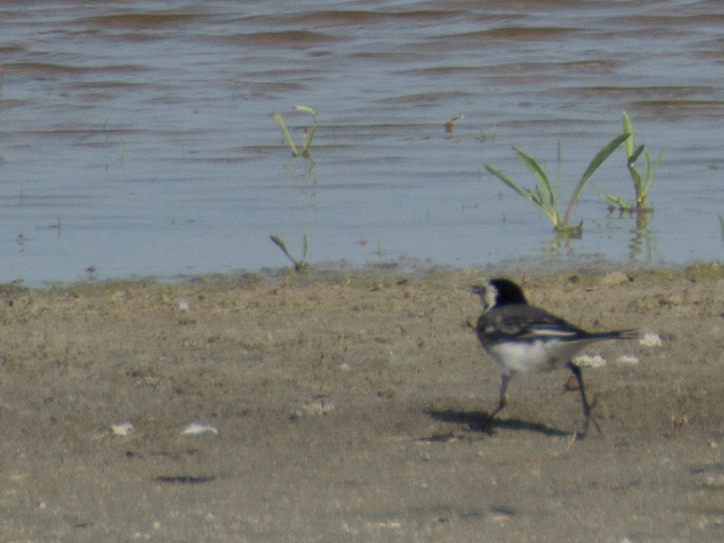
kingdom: Animalia
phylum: Chordata
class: Aves
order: Passeriformes
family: Motacillidae
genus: Motacilla
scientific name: Motacilla alba
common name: White wagtail
